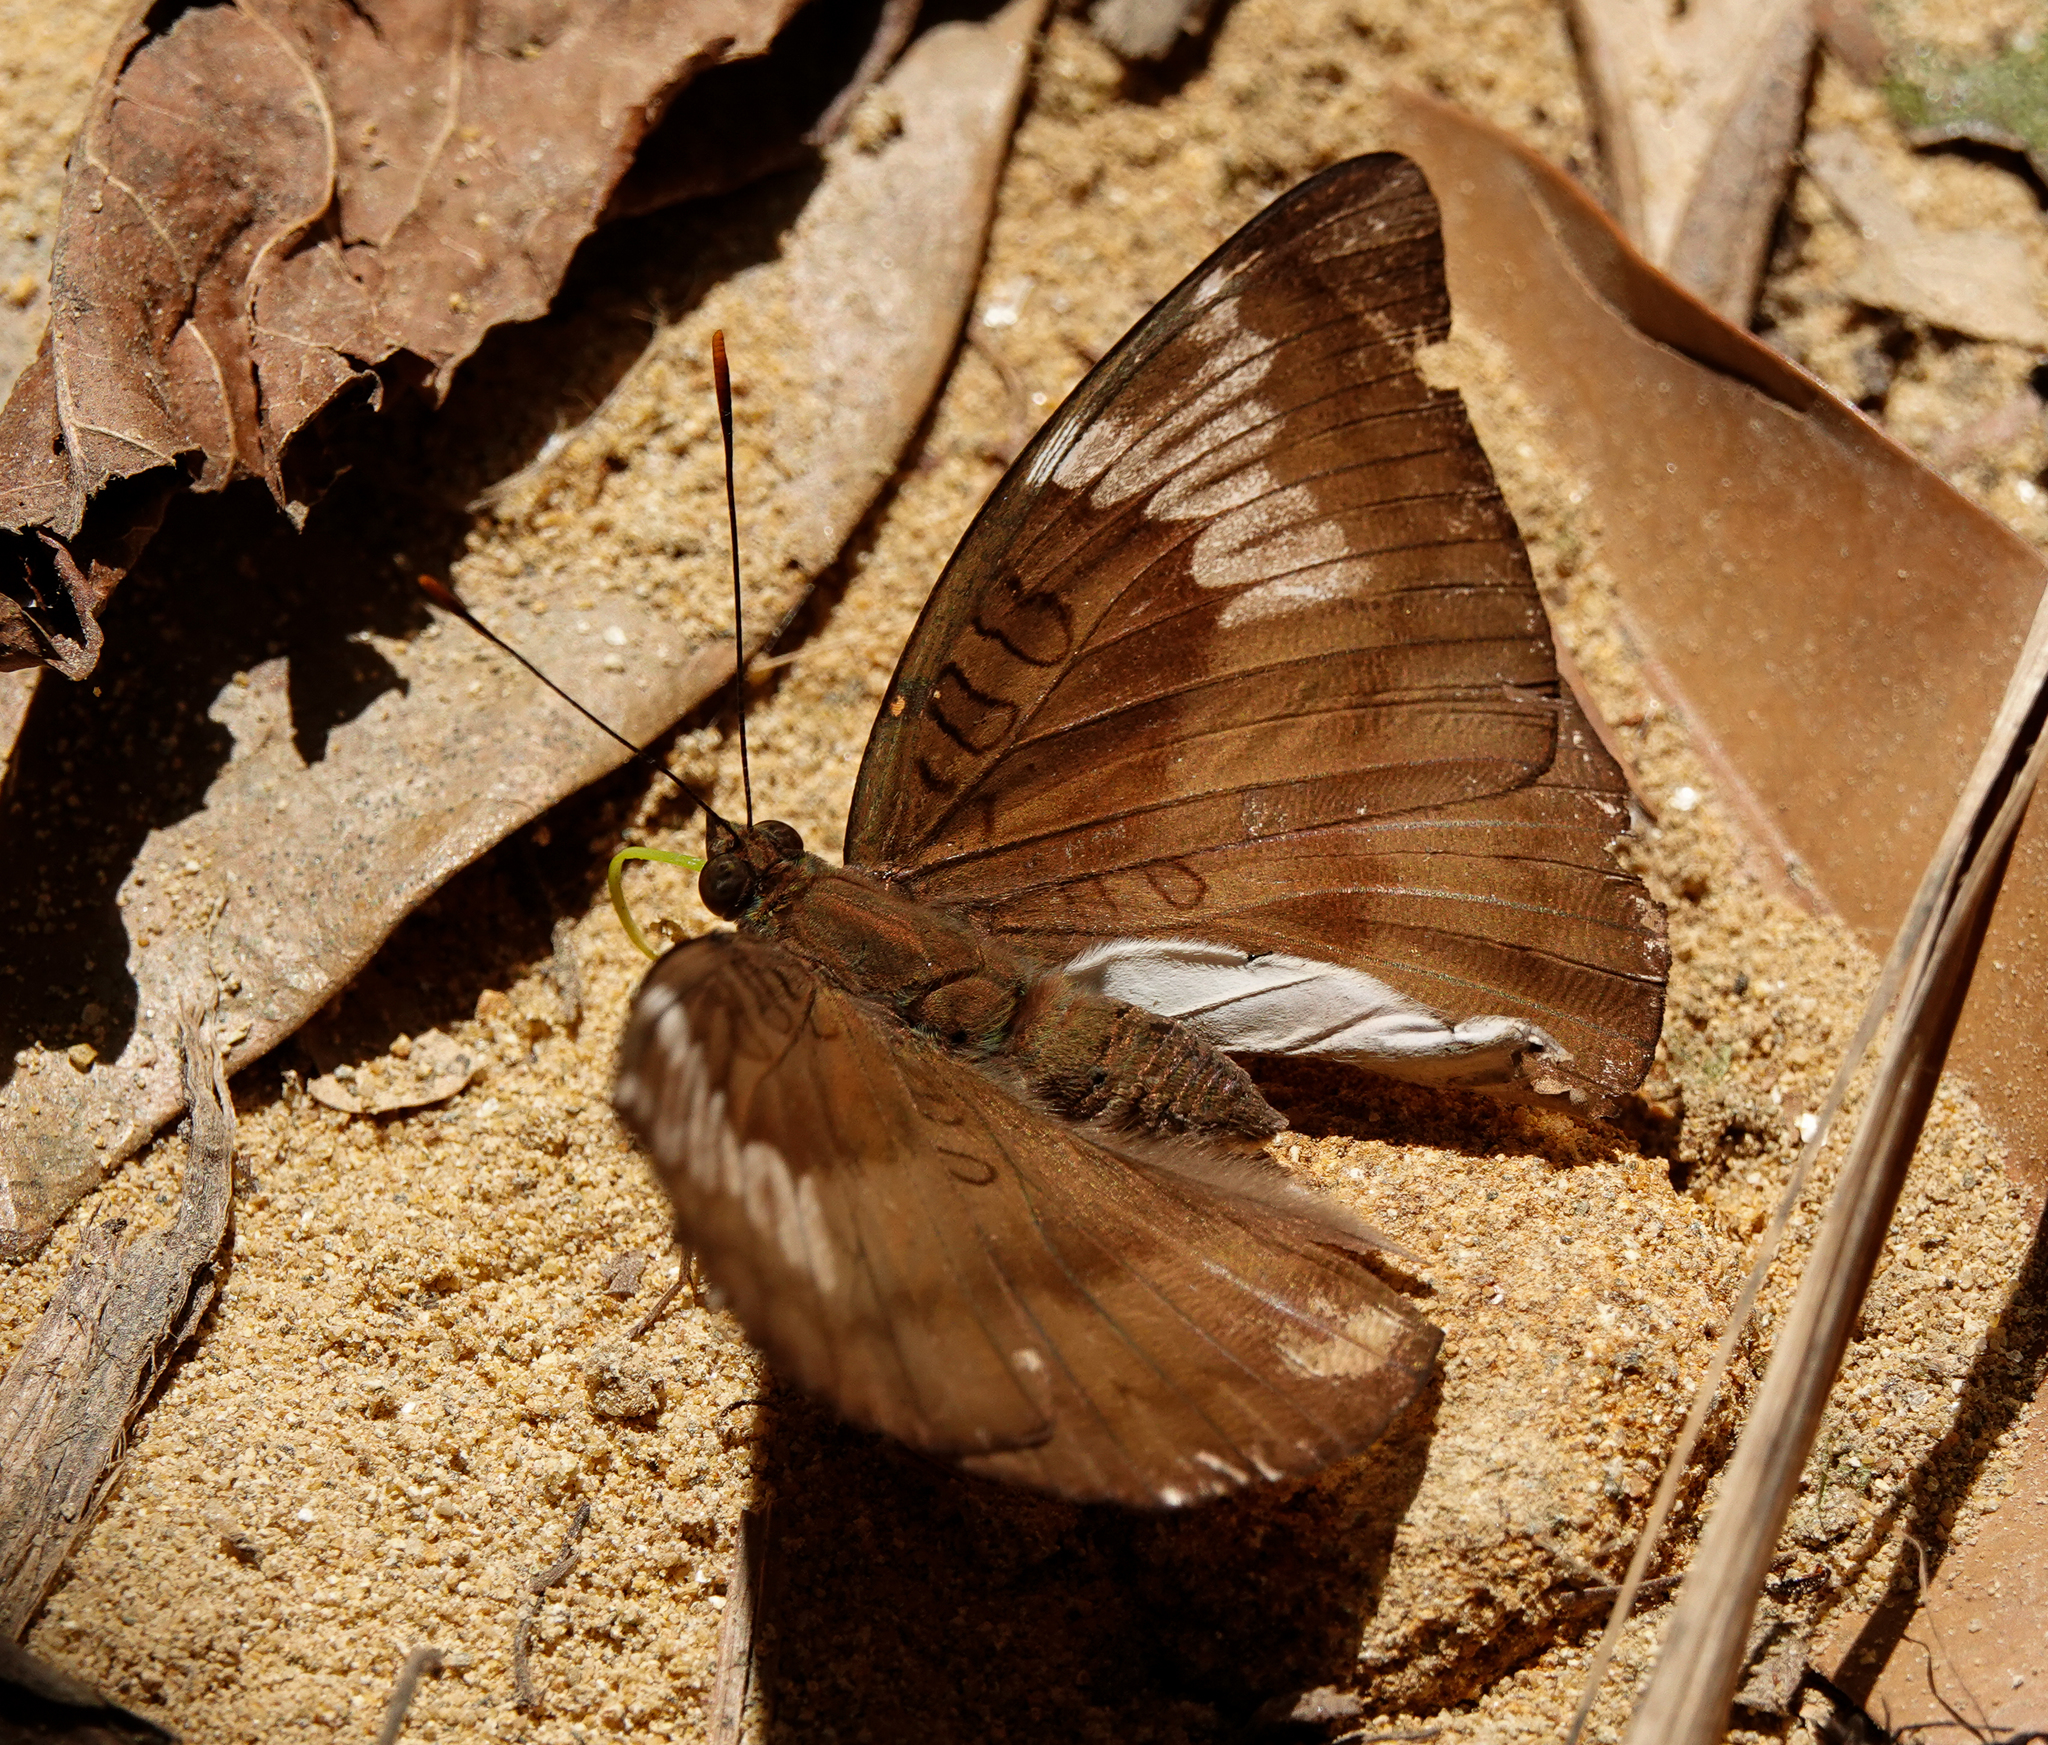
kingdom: Animalia
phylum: Arthropoda
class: Insecta
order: Lepidoptera
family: Nymphalidae
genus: Euthalia
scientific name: Euthalia aconthea
